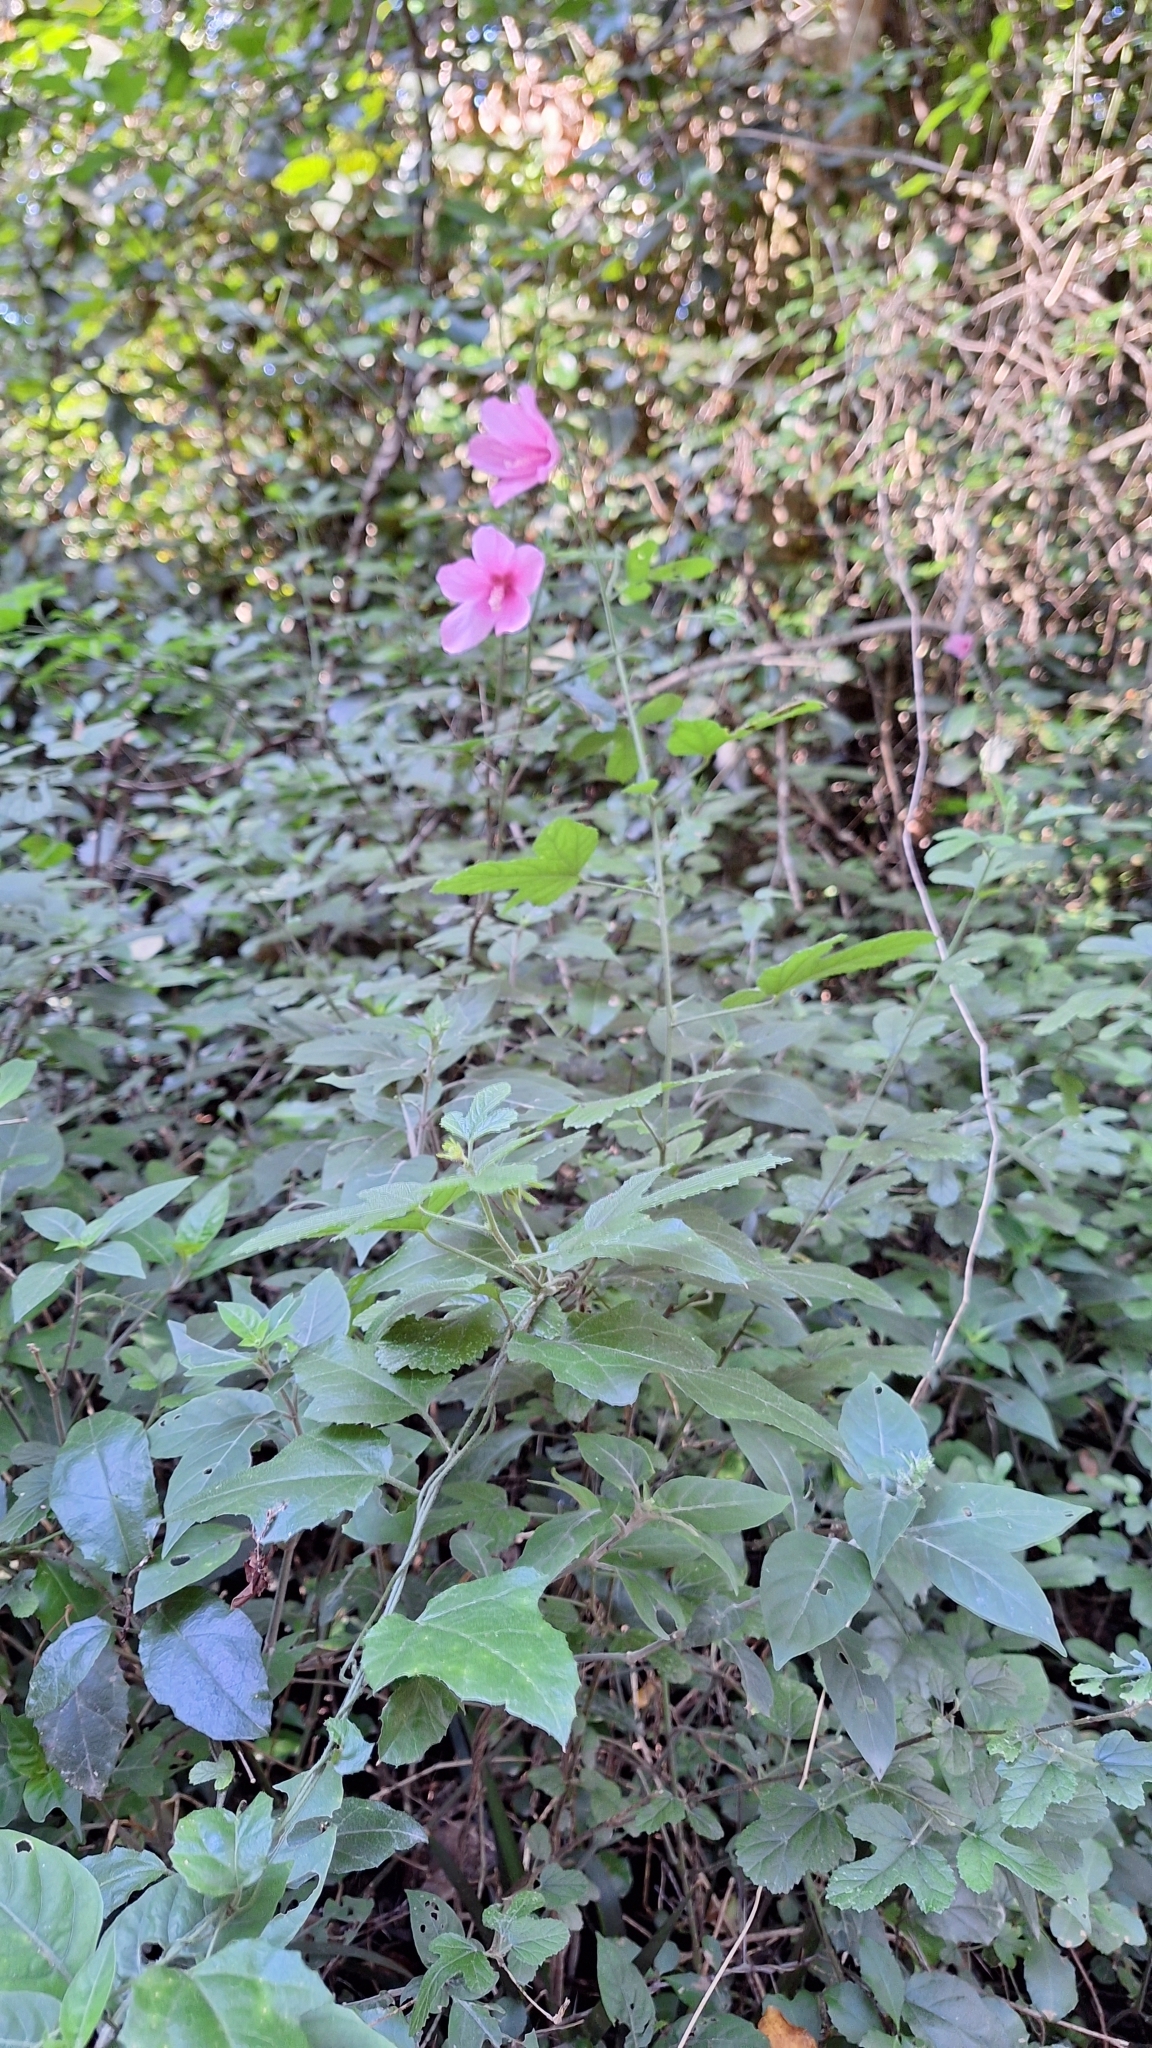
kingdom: Plantae
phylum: Tracheophyta
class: Magnoliopsida
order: Malvales
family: Malvaceae
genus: Hibiscus
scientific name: Hibiscus pedunculatus
